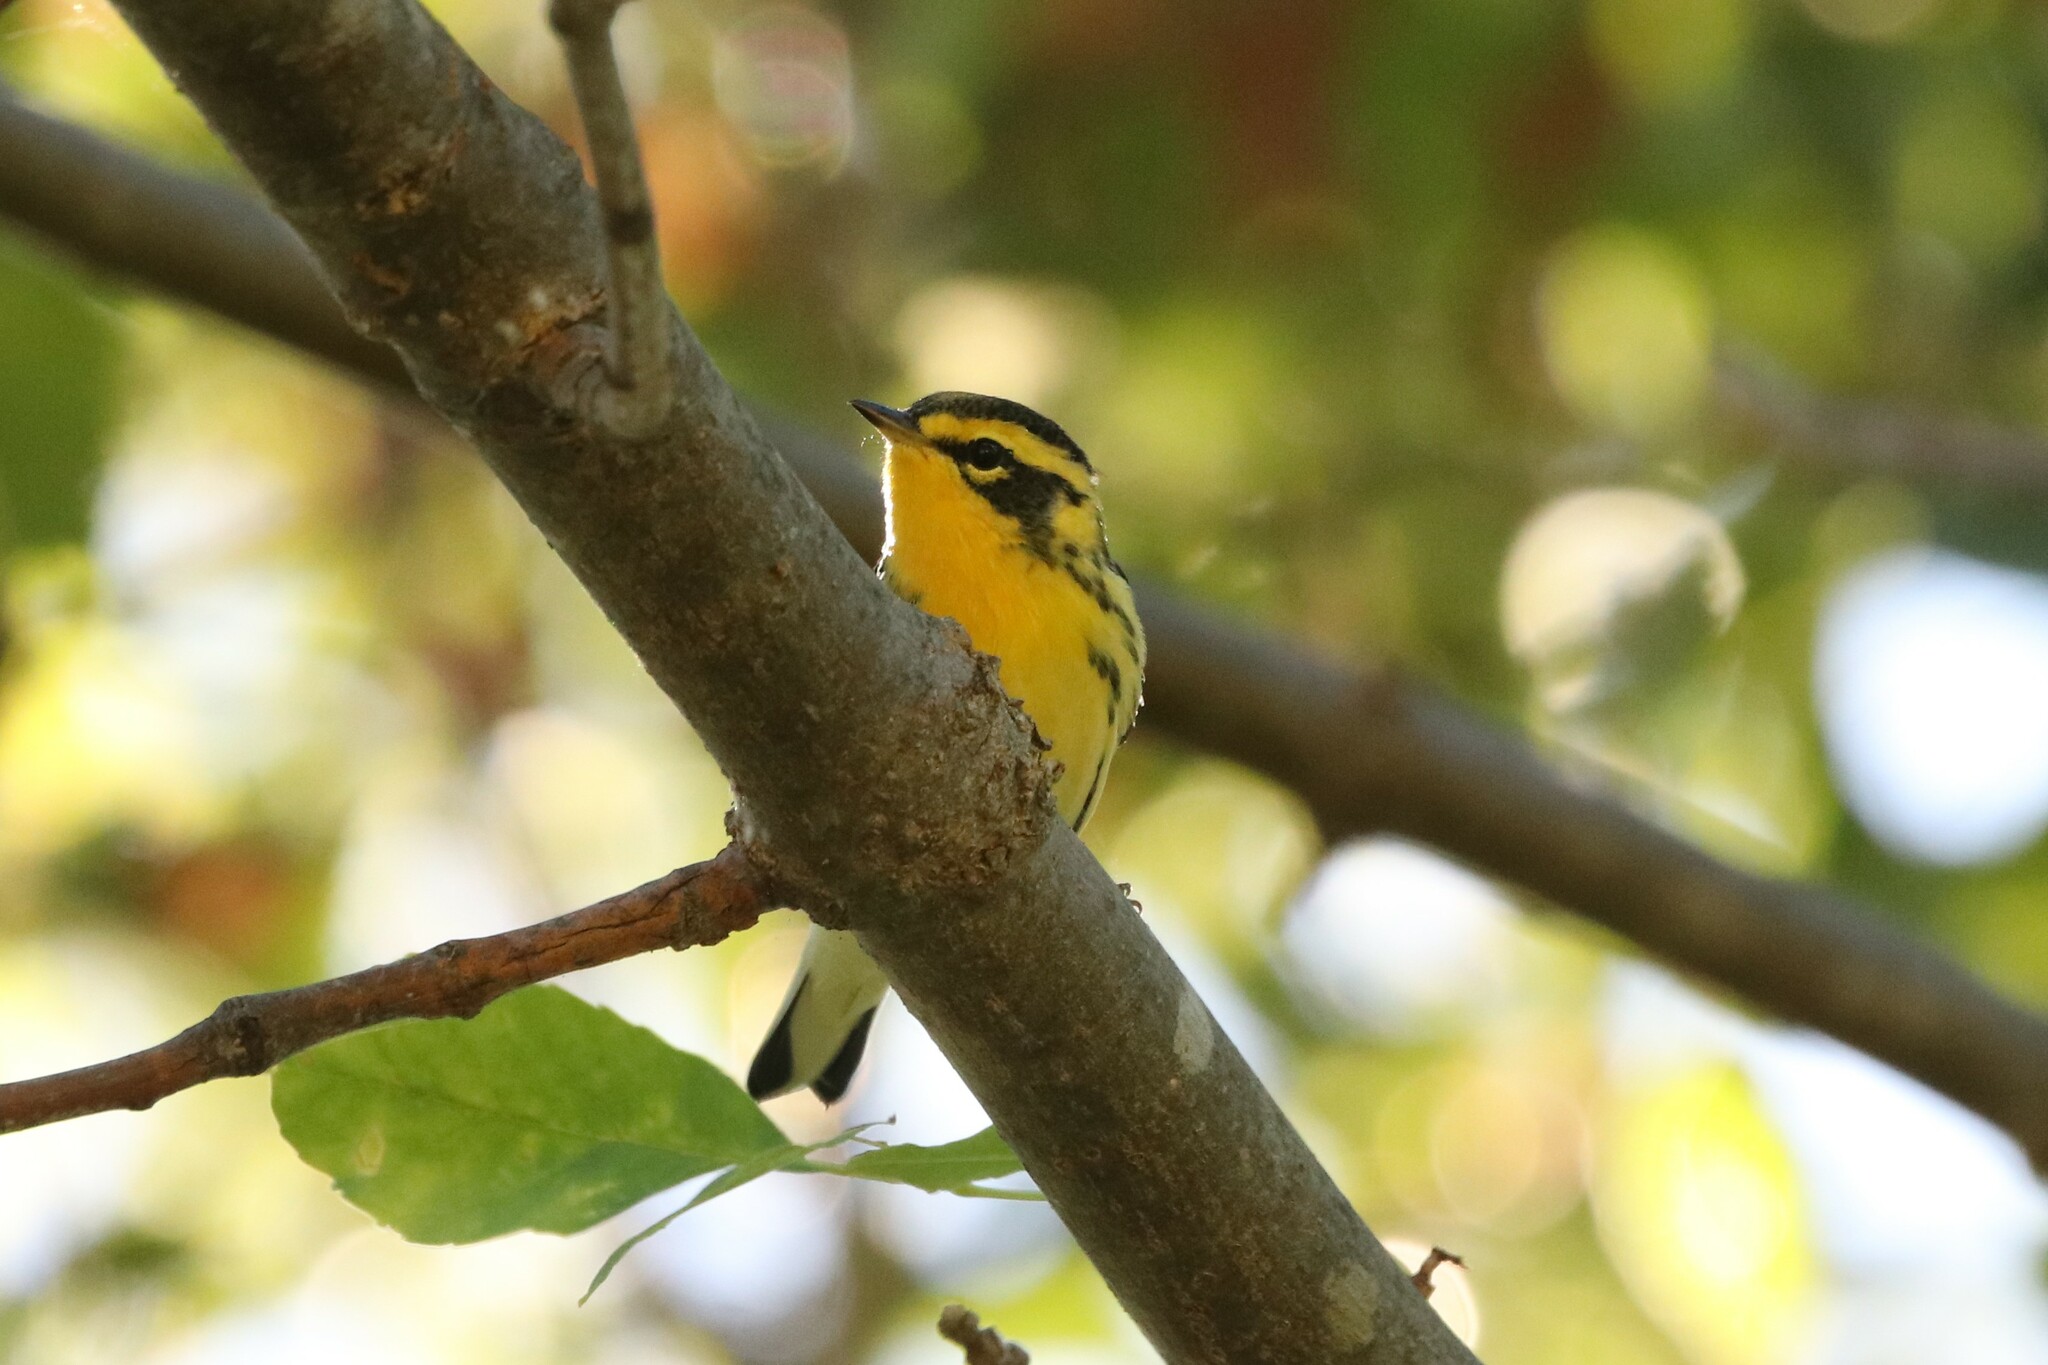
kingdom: Animalia
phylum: Chordata
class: Aves
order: Passeriformes
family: Parulidae
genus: Setophaga
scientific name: Setophaga fusca
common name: Blackburnian warbler
